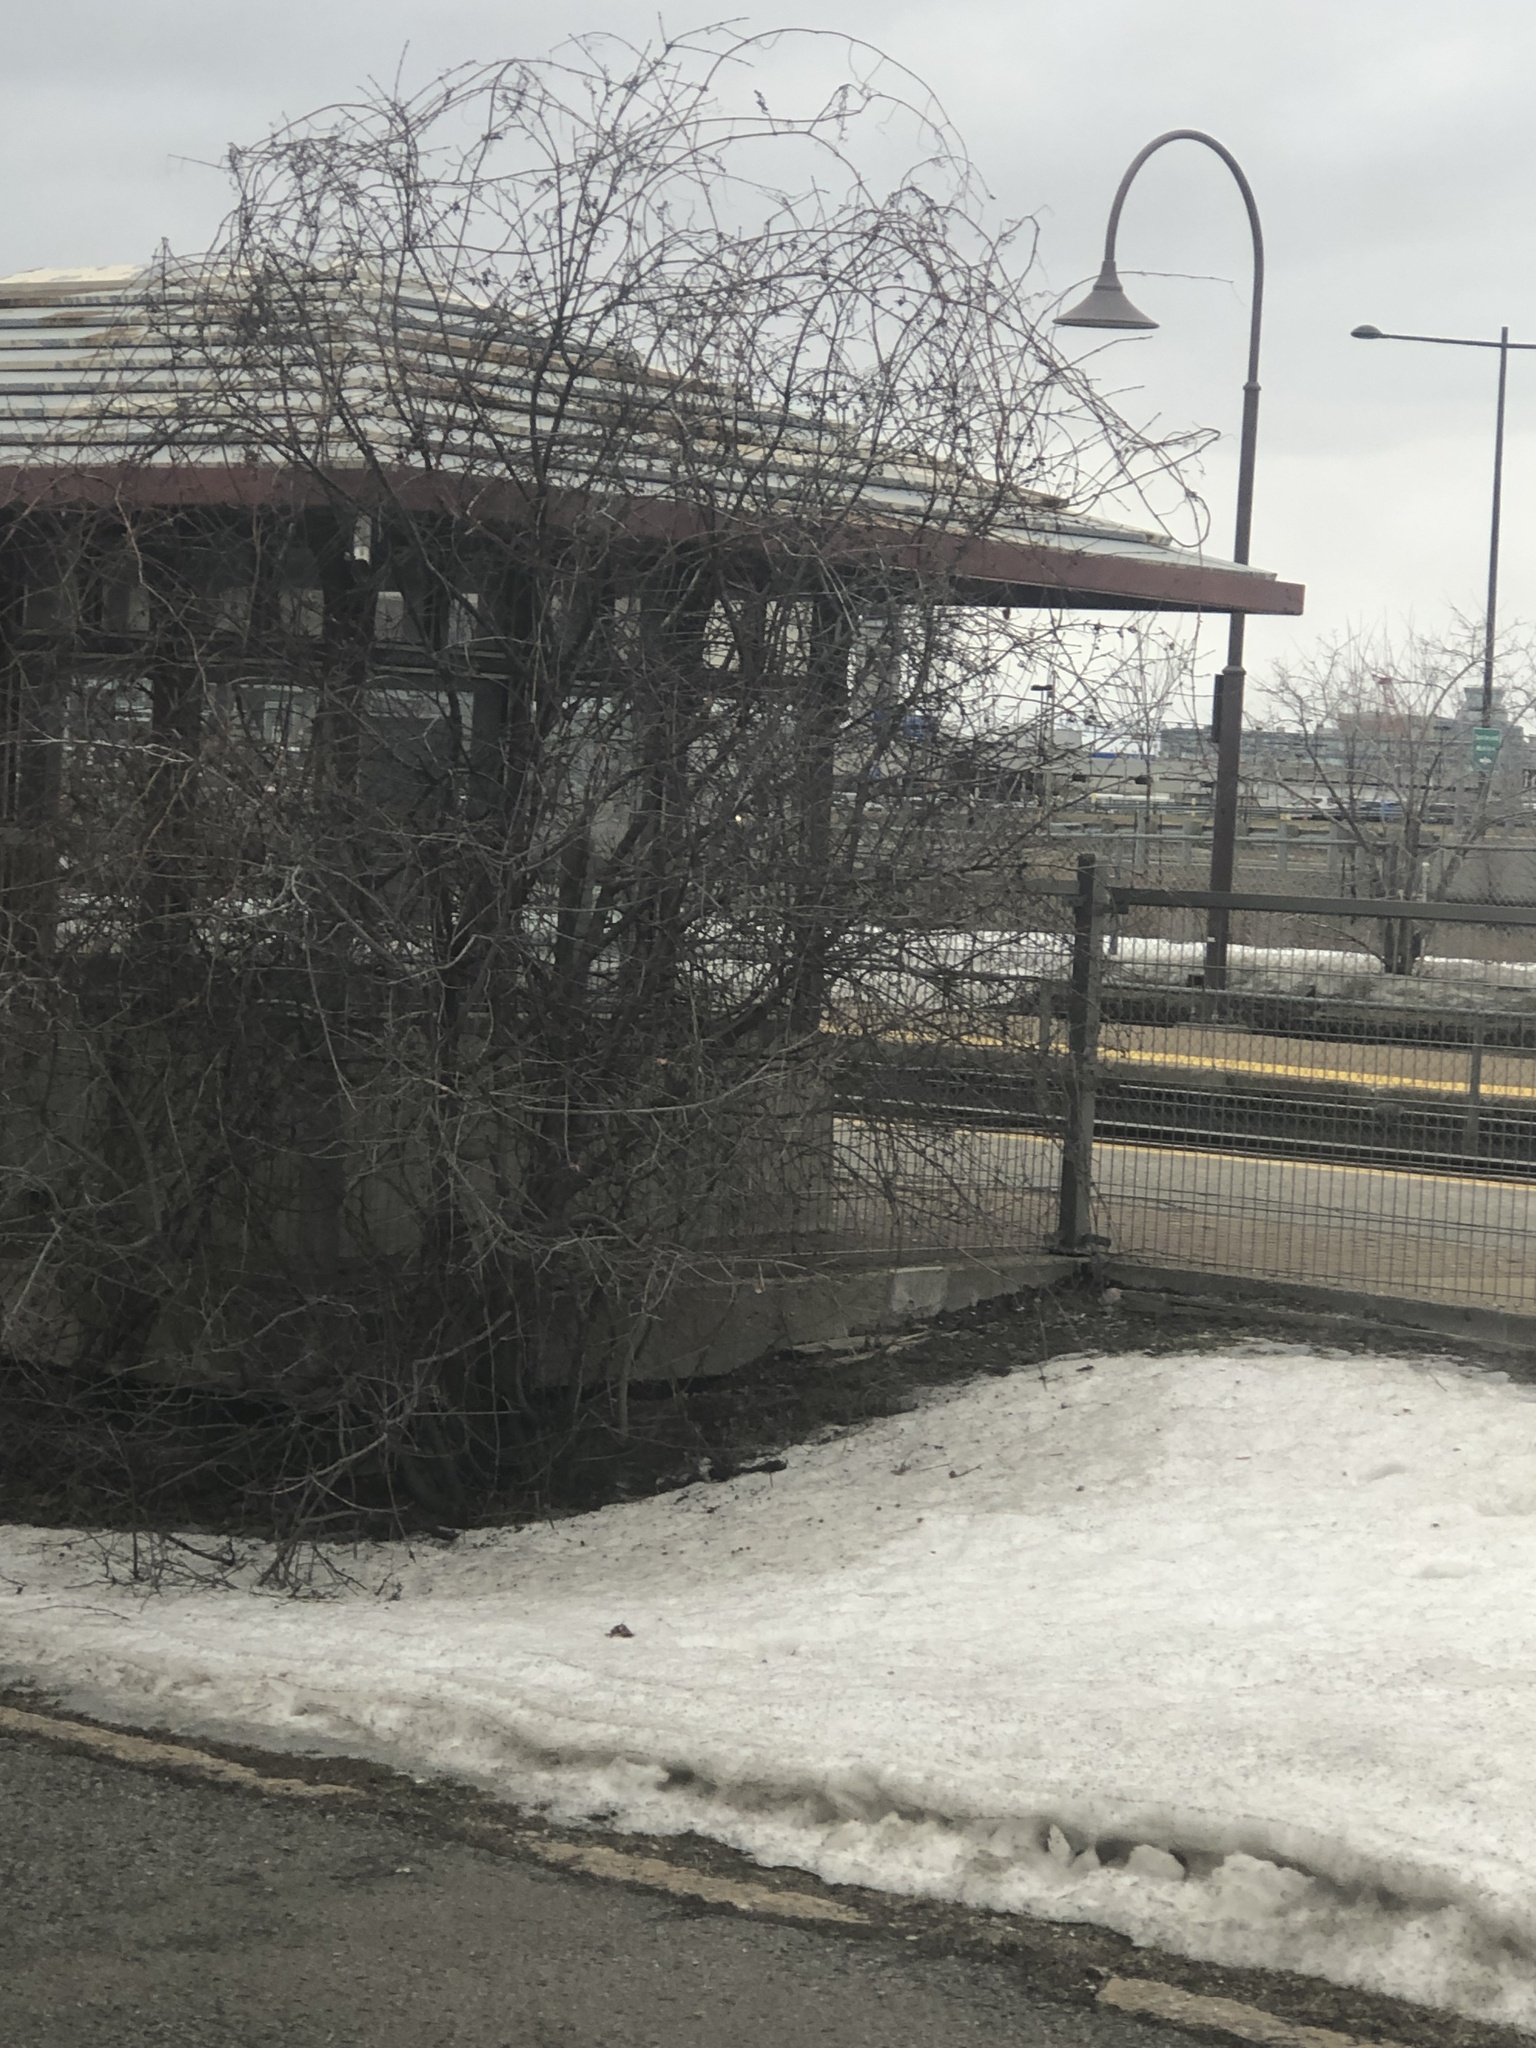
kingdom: Plantae
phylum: Tracheophyta
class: Magnoliopsida
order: Rosales
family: Rhamnaceae
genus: Rhamnus
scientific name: Rhamnus cathartica
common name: Common buckthorn
